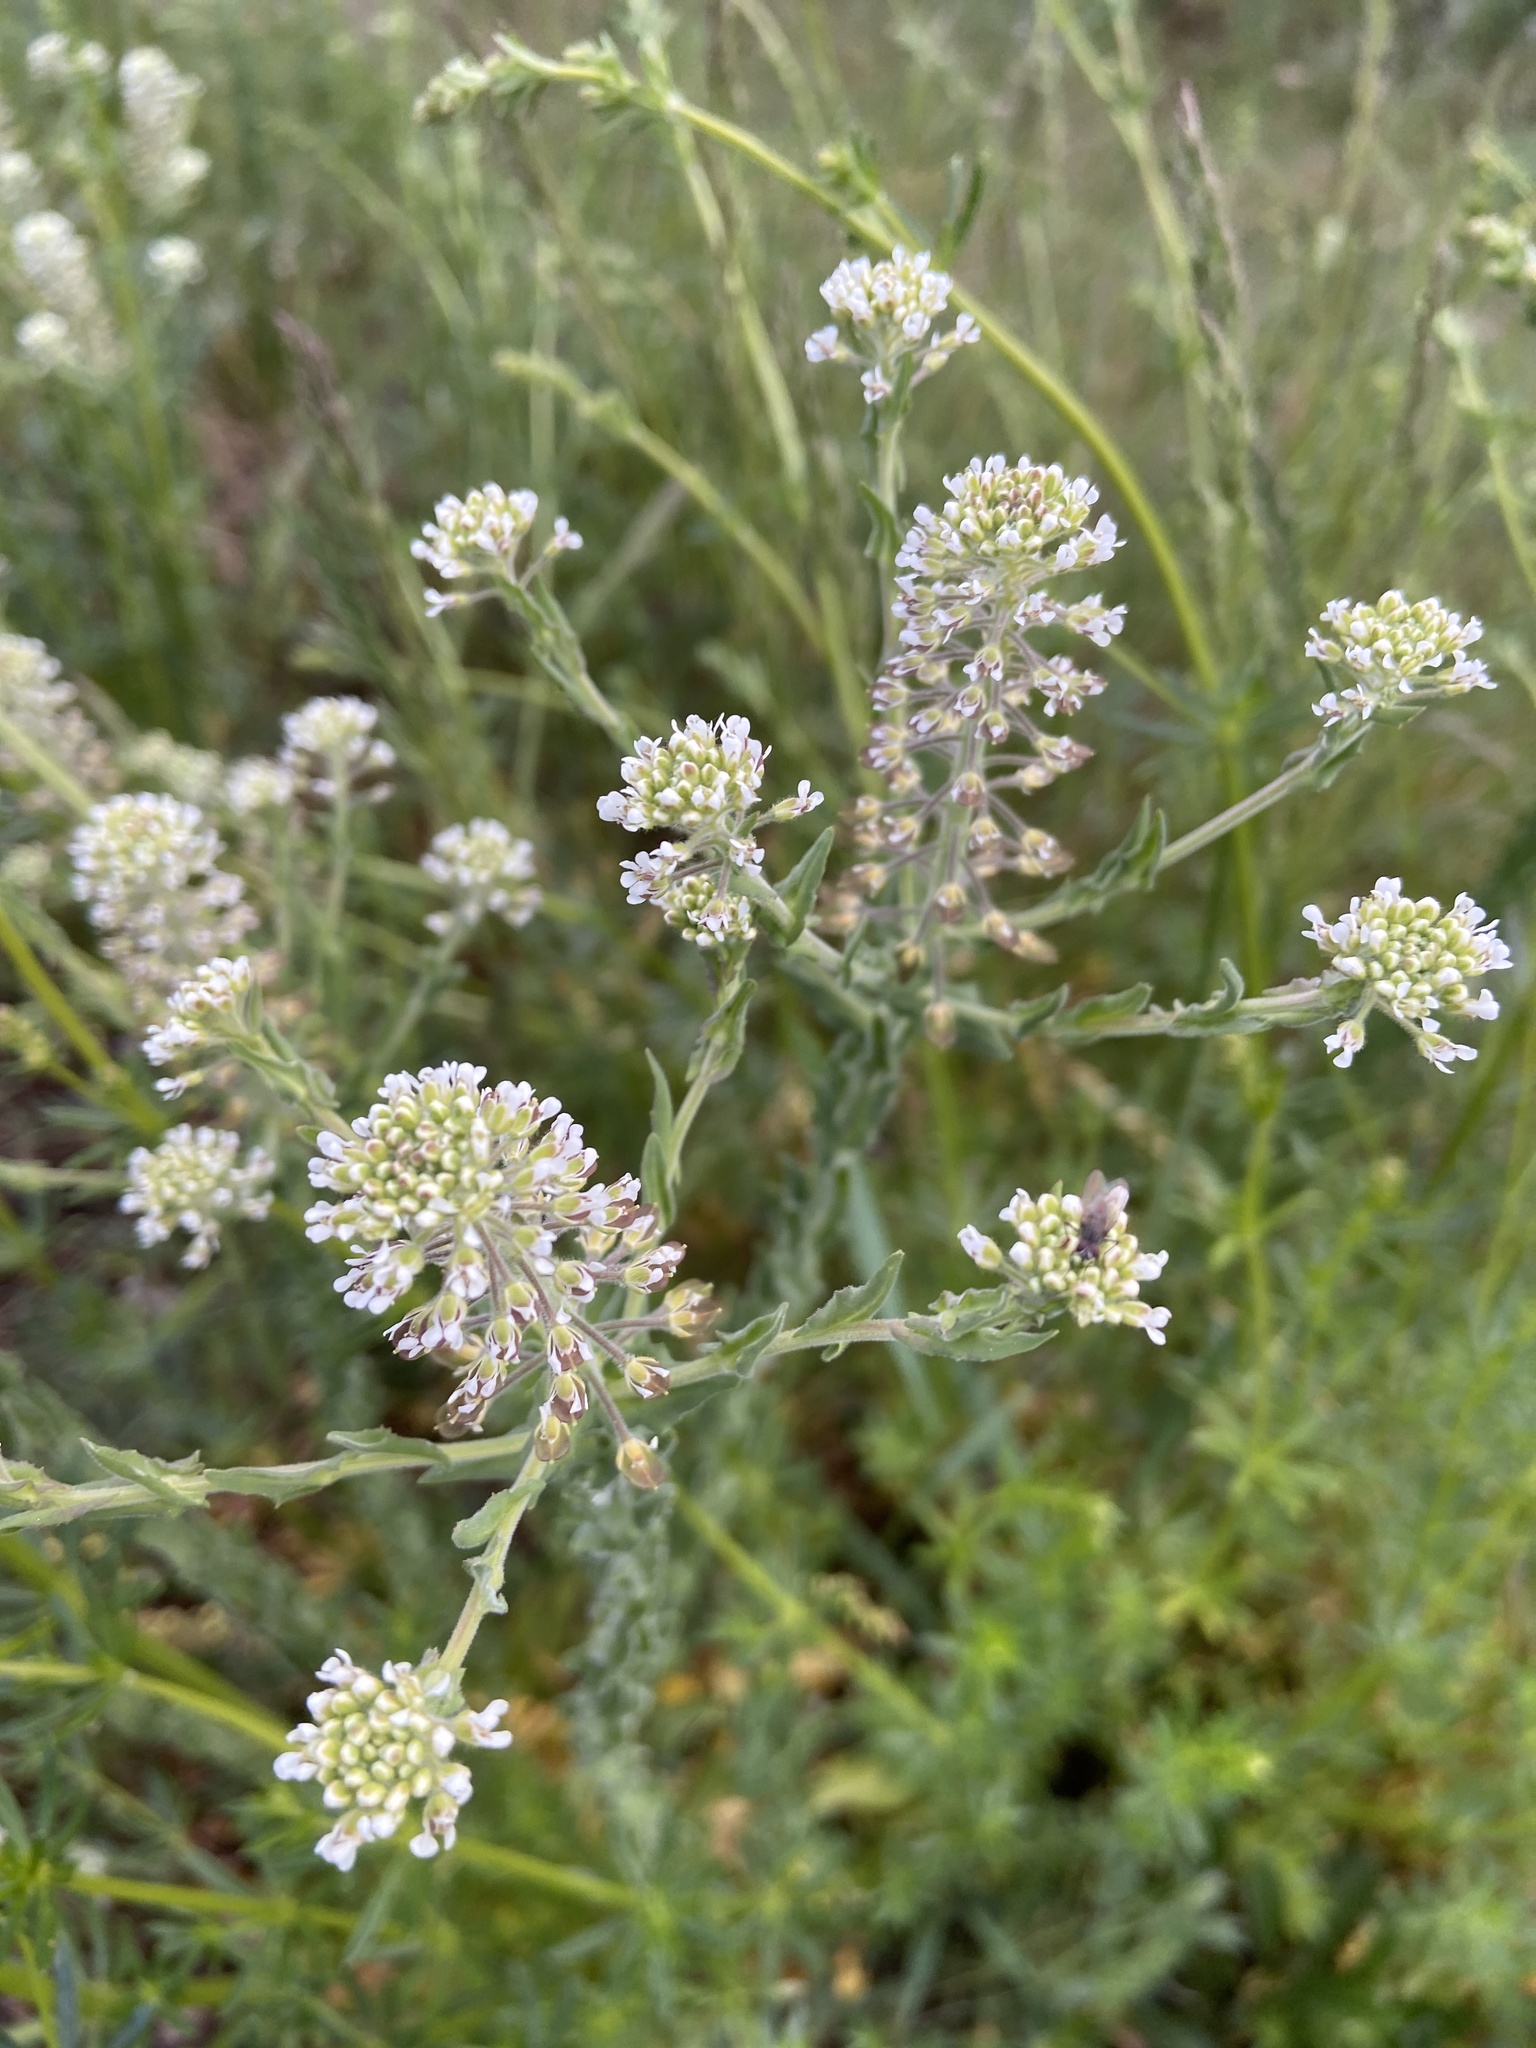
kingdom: Plantae
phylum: Tracheophyta
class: Magnoliopsida
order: Brassicales
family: Brassicaceae
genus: Lepidium
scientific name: Lepidium campestre
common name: Field pepperwort
